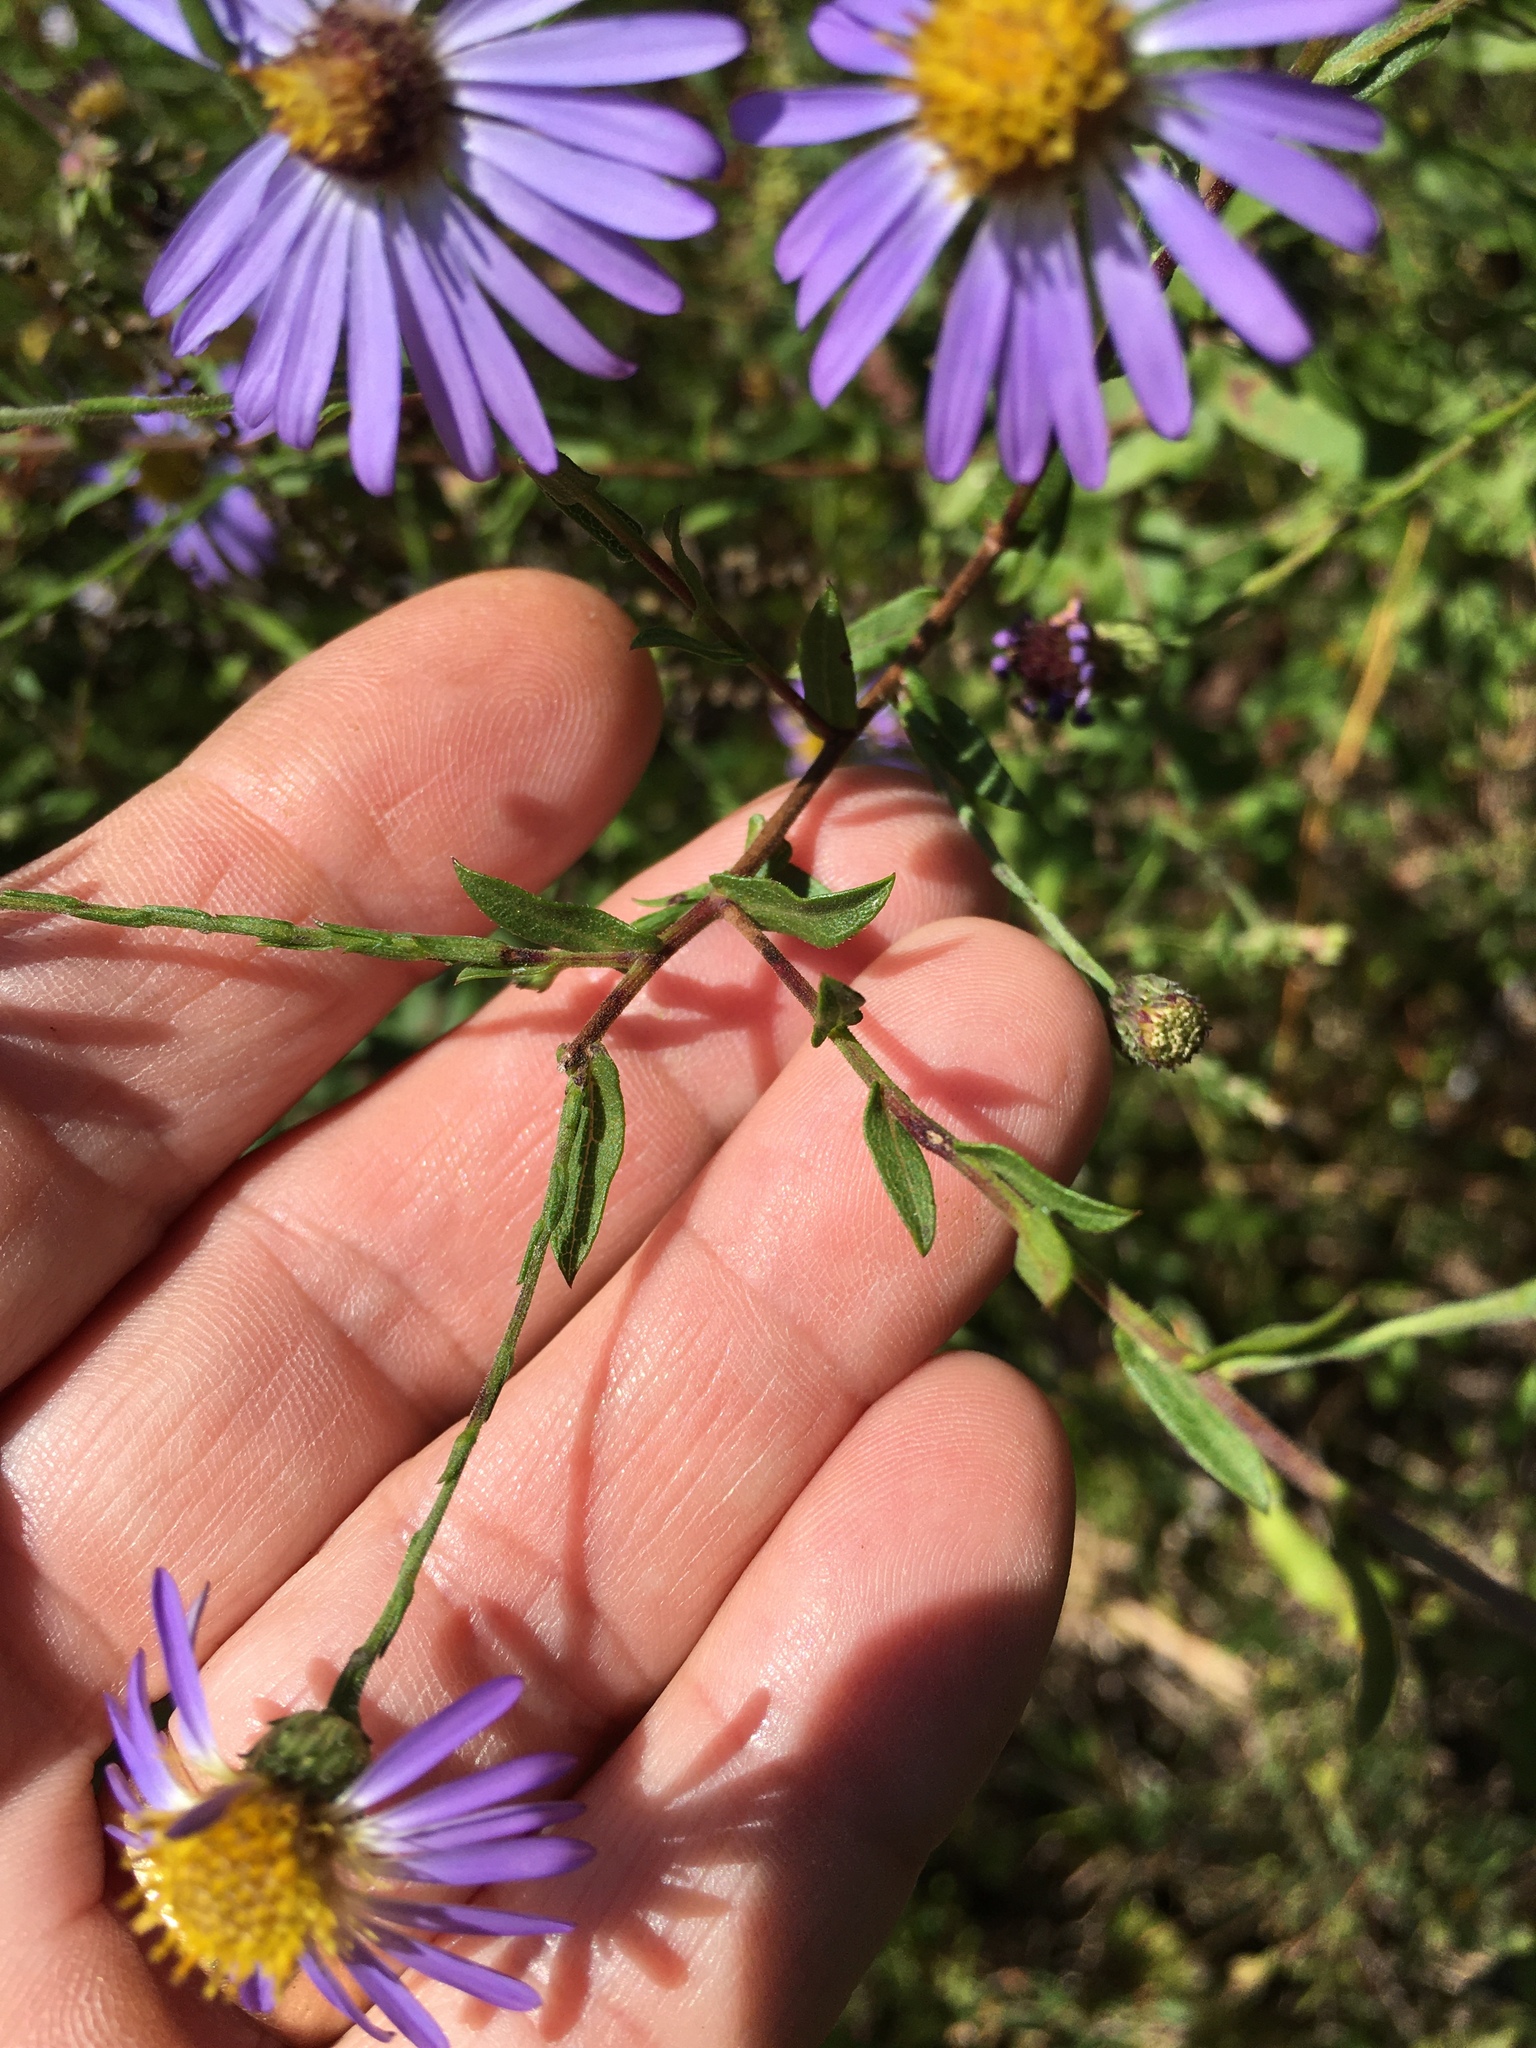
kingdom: Plantae
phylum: Tracheophyta
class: Magnoliopsida
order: Asterales
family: Asteraceae
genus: Symphyotrichum
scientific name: Symphyotrichum patens
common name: Late purple aster
